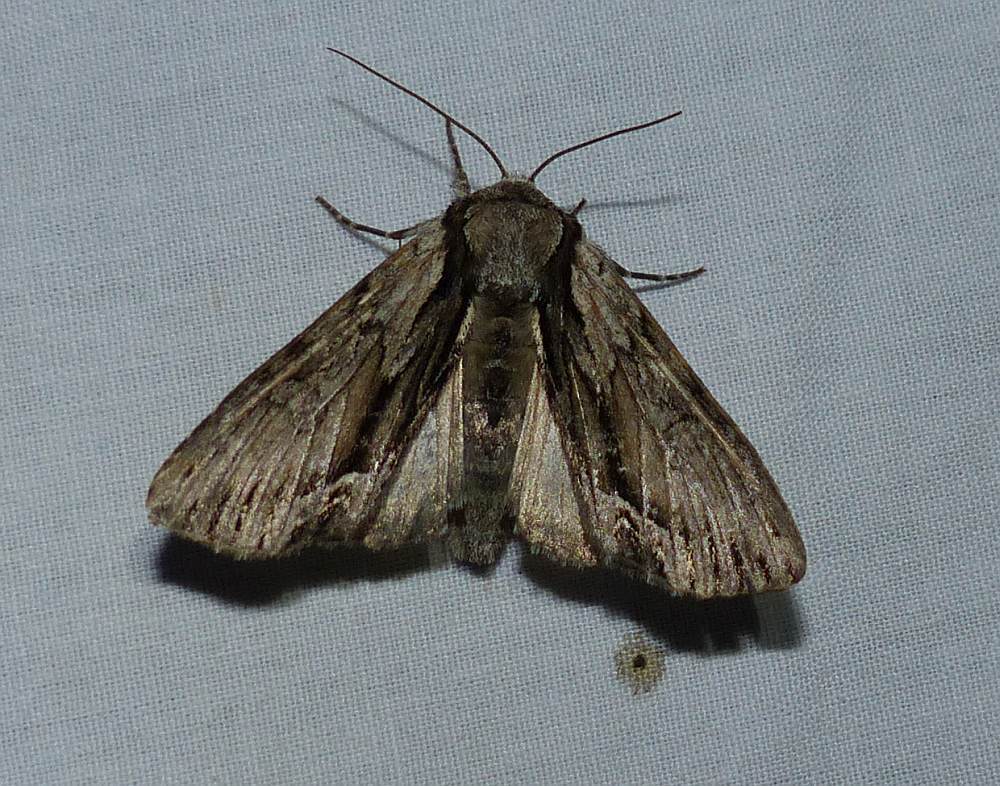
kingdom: Animalia
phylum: Arthropoda
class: Insecta
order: Lepidoptera
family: Noctuidae
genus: Hyppa
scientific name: Hyppa xylinoides
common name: Common hyppa moth
